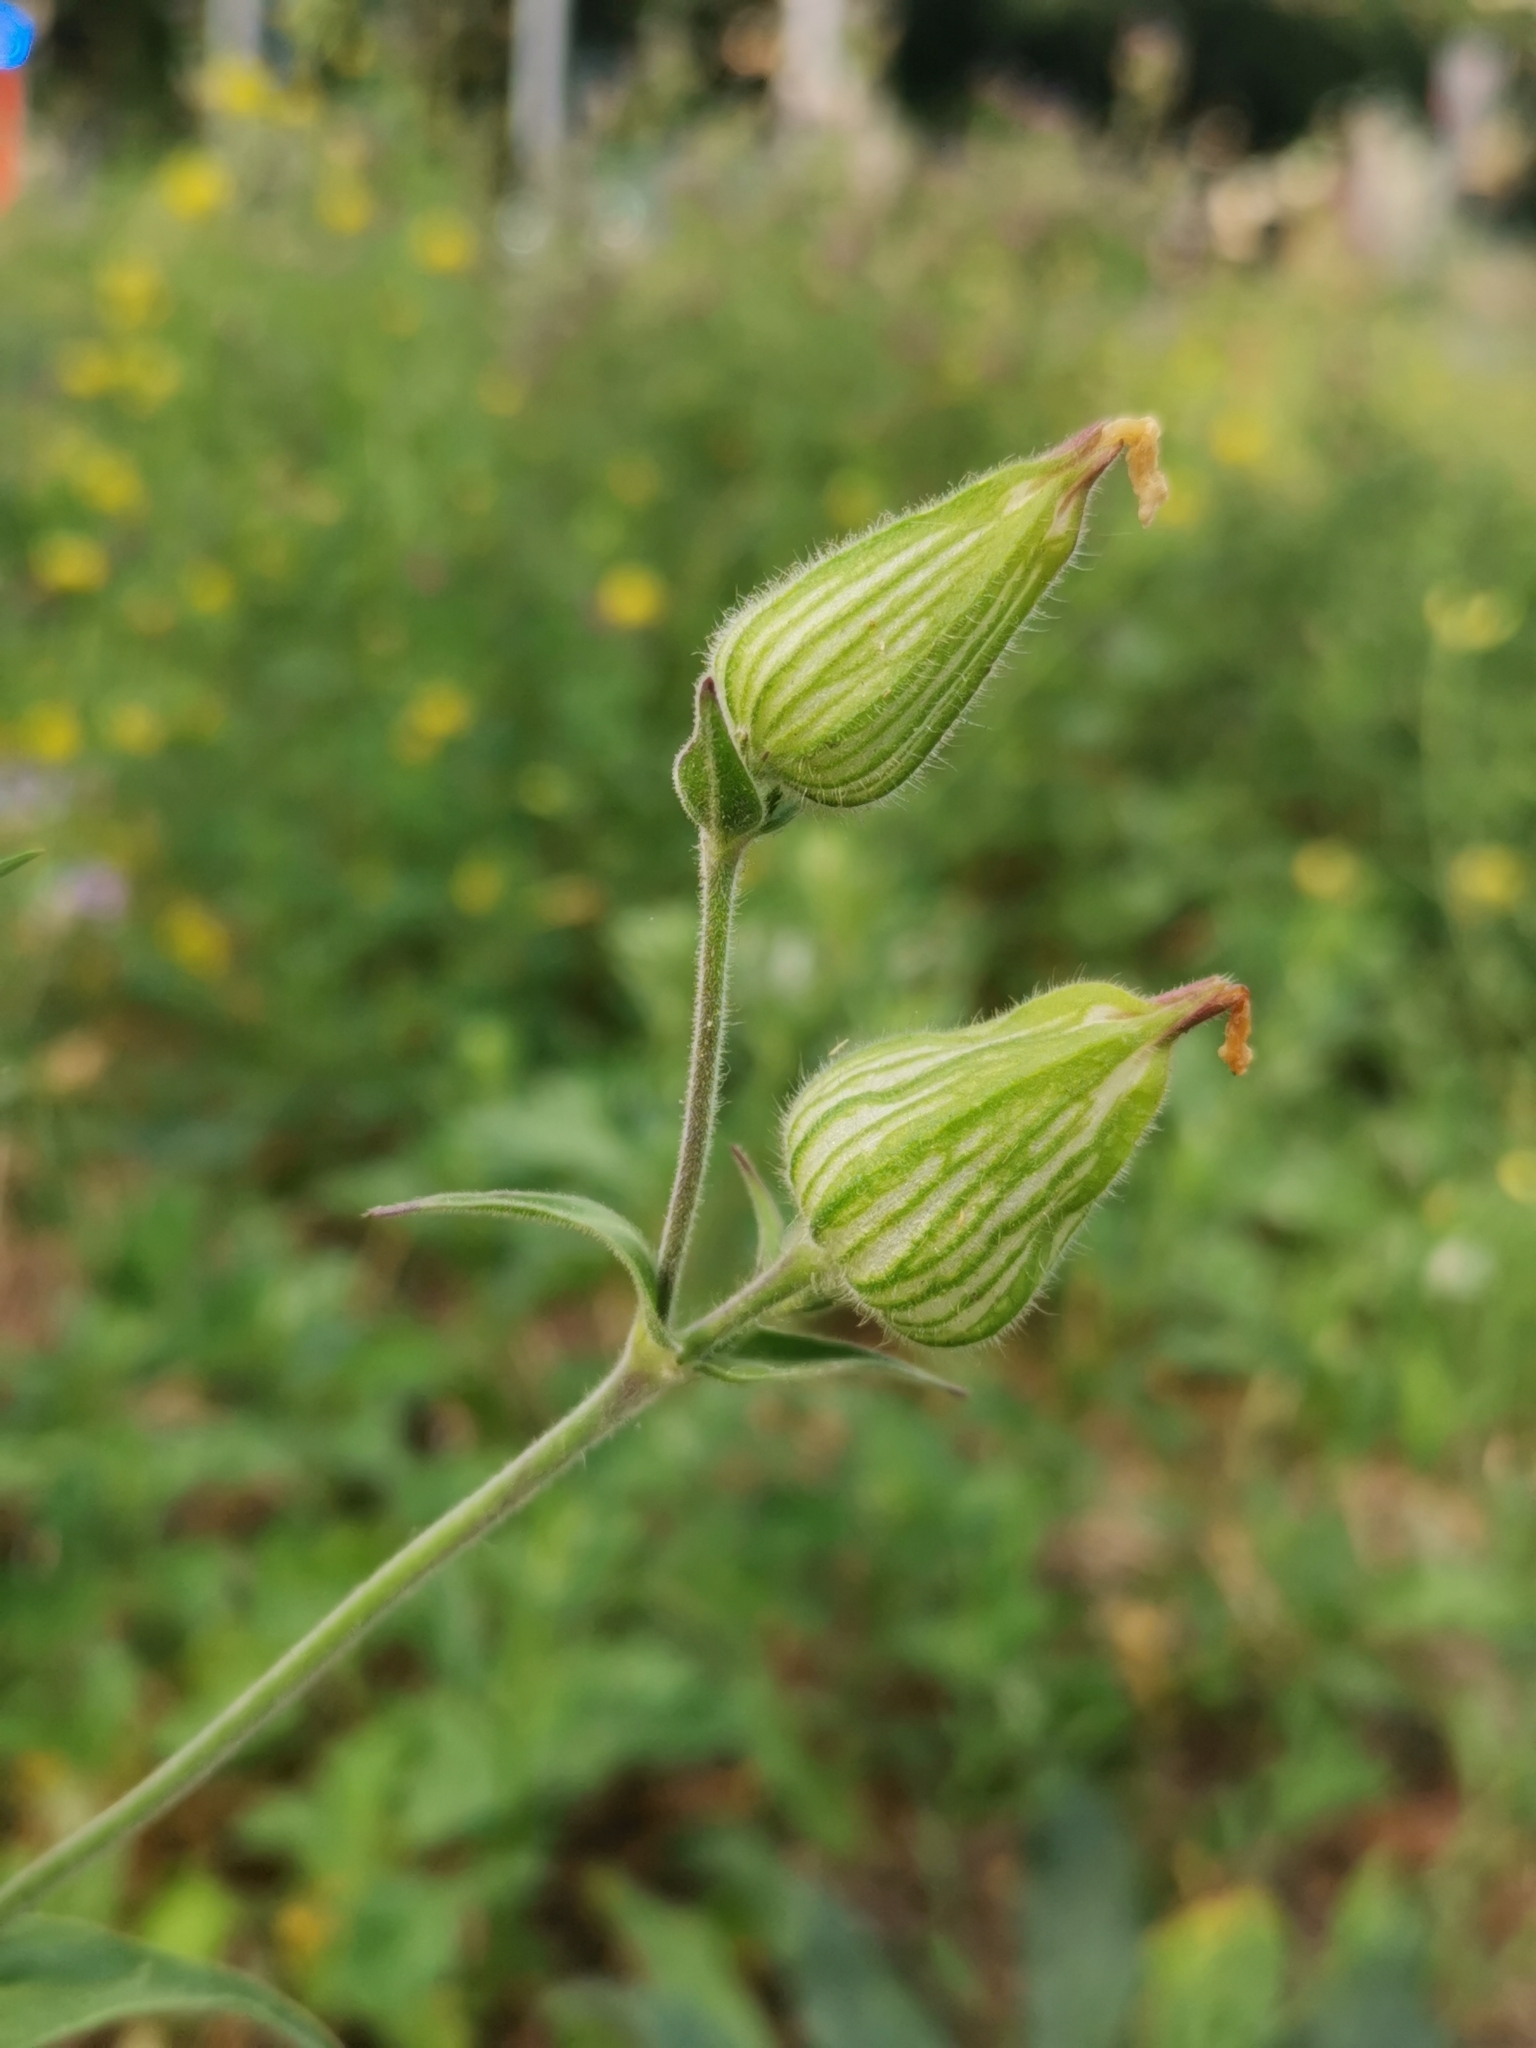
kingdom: Plantae
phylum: Tracheophyta
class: Magnoliopsida
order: Caryophyllales
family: Caryophyllaceae
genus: Silene
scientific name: Silene latifolia
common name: White campion
